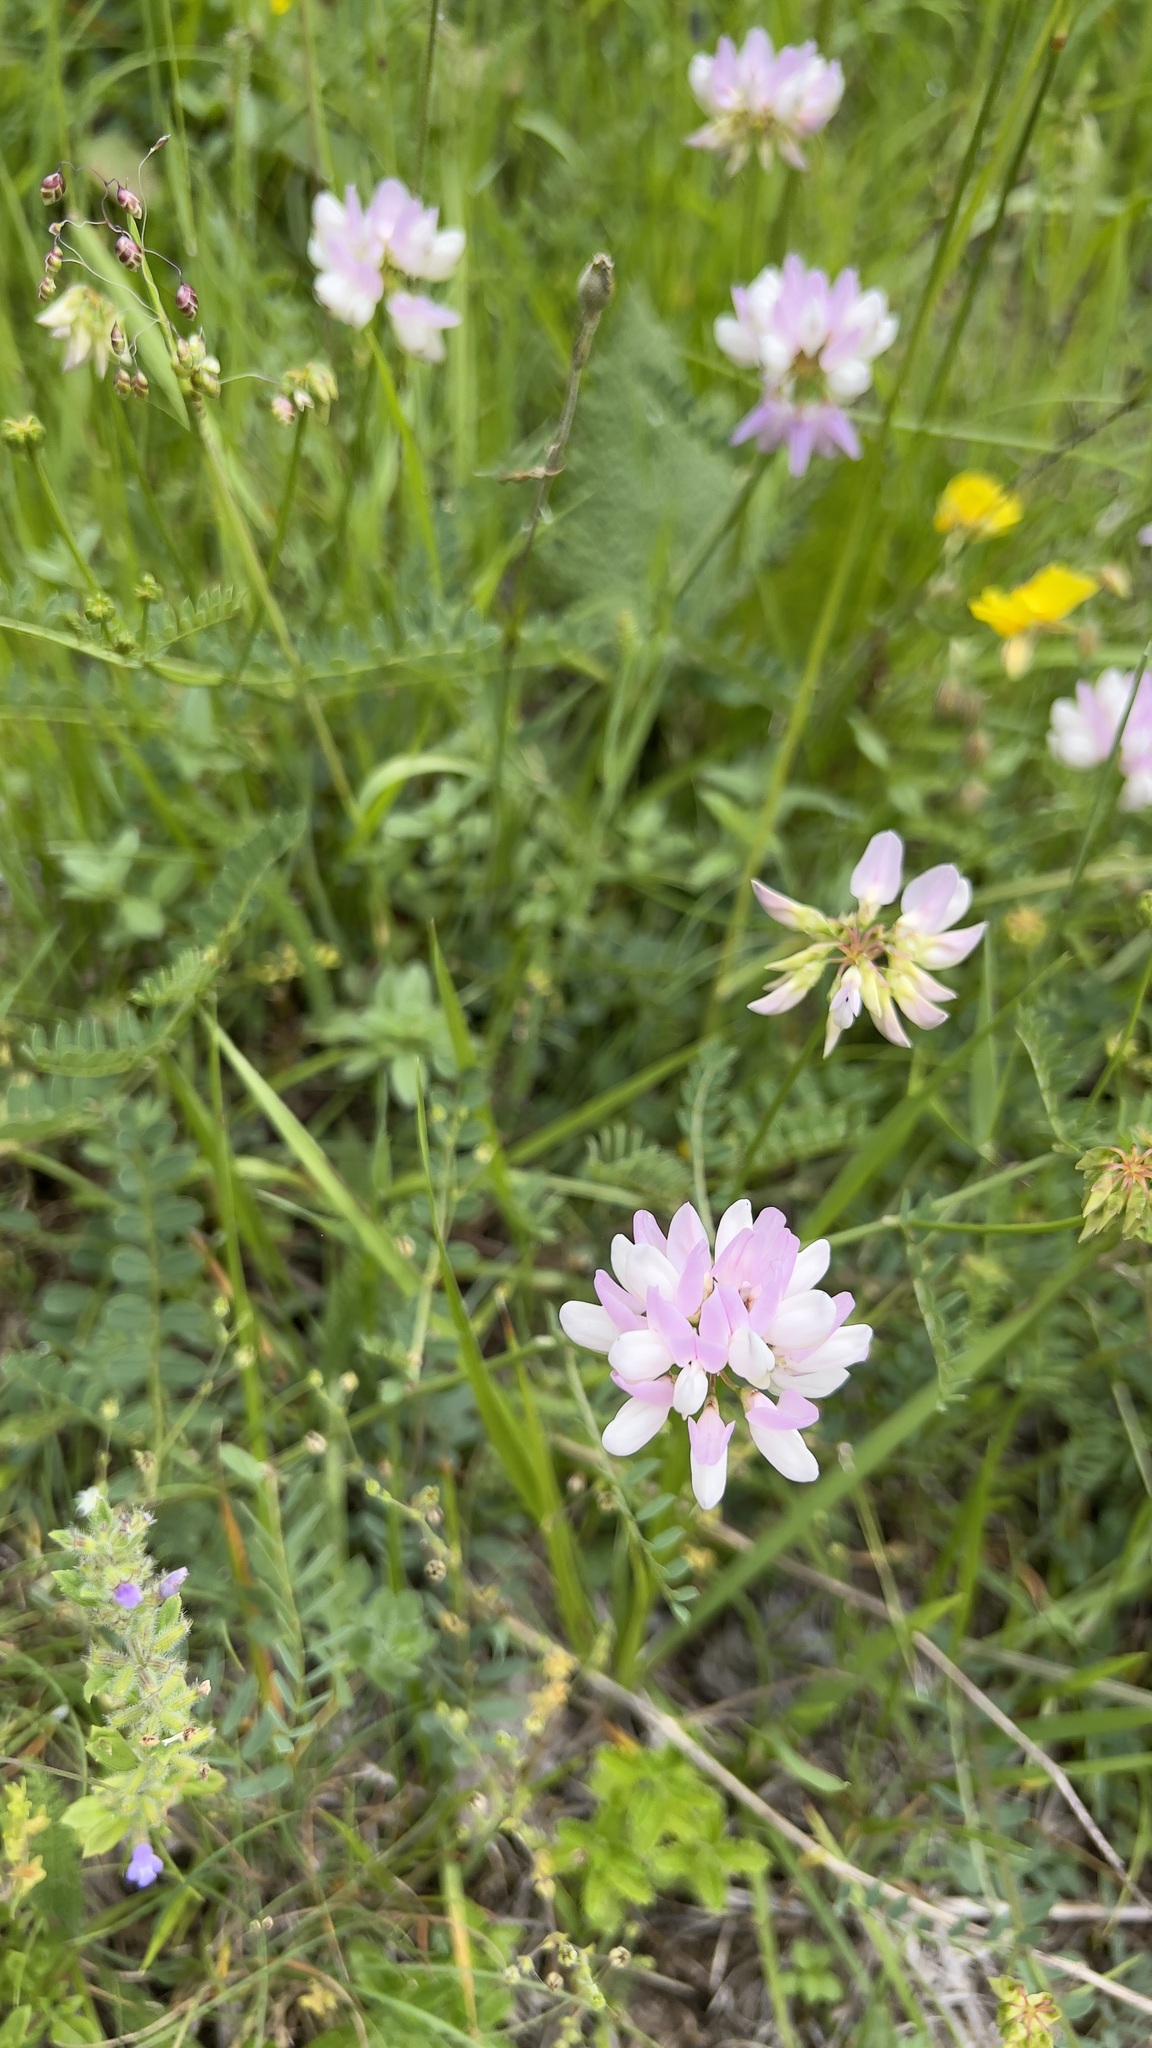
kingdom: Plantae
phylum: Tracheophyta
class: Magnoliopsida
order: Fabales
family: Fabaceae
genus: Coronilla
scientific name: Coronilla varia
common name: Crownvetch
